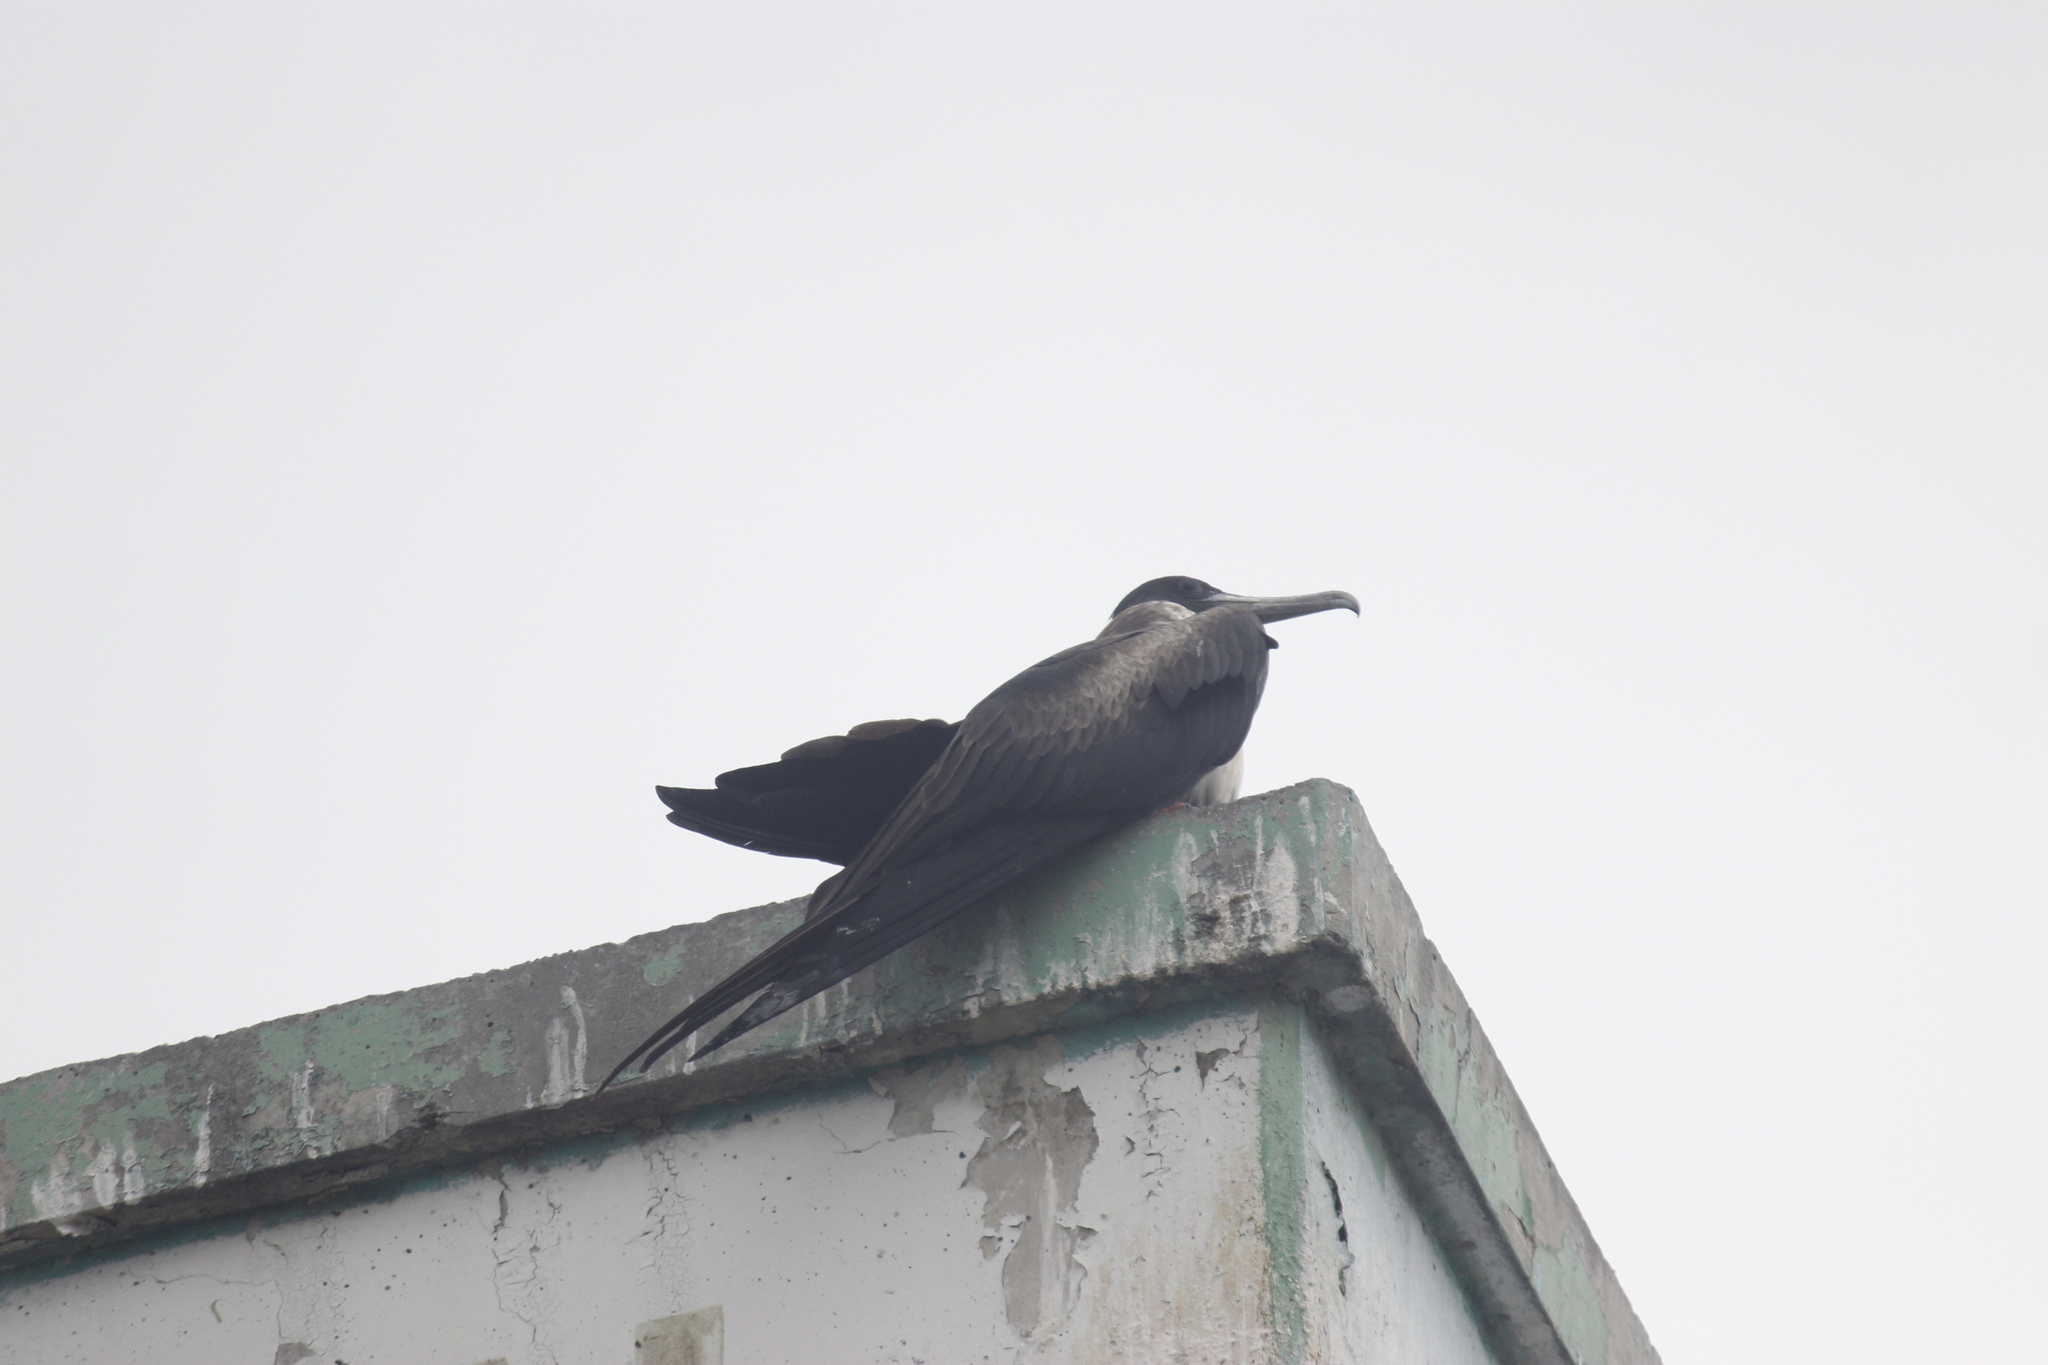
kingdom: Animalia
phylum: Chordata
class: Aves
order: Suliformes
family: Fregatidae
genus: Fregata
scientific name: Fregata magnificens
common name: Magnificent frigatebird
